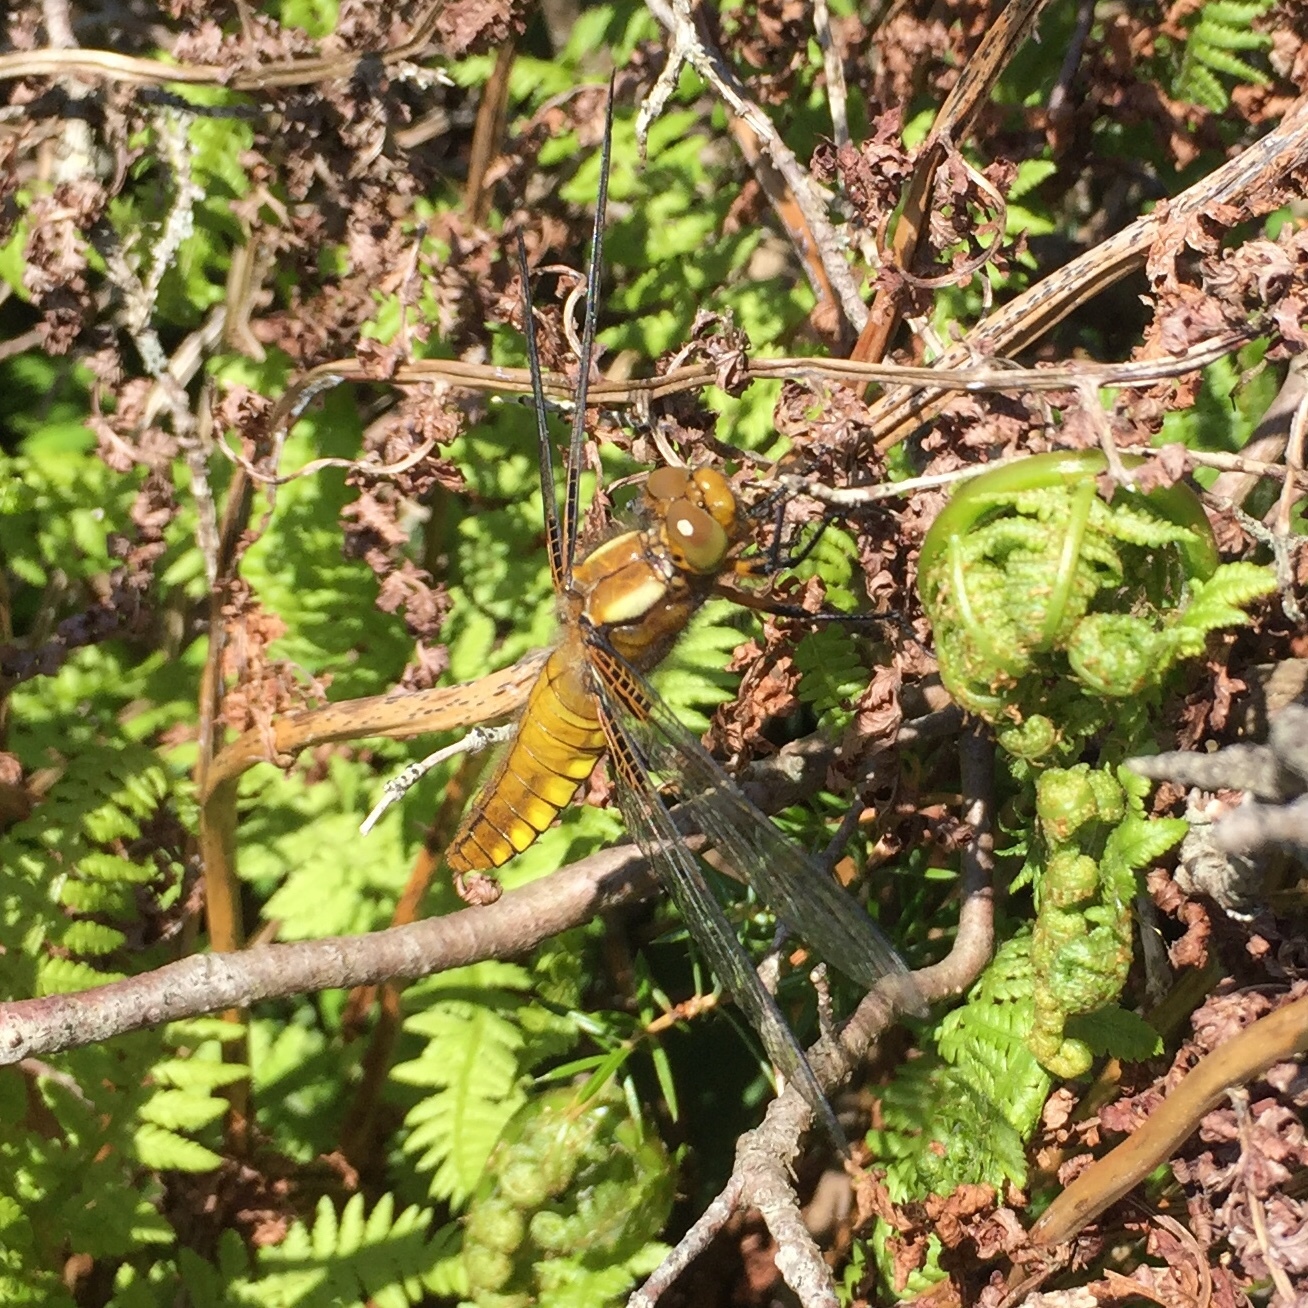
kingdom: Animalia
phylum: Arthropoda
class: Insecta
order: Odonata
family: Libellulidae
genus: Libellula
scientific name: Libellula depressa
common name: Broad-bodied chaser
